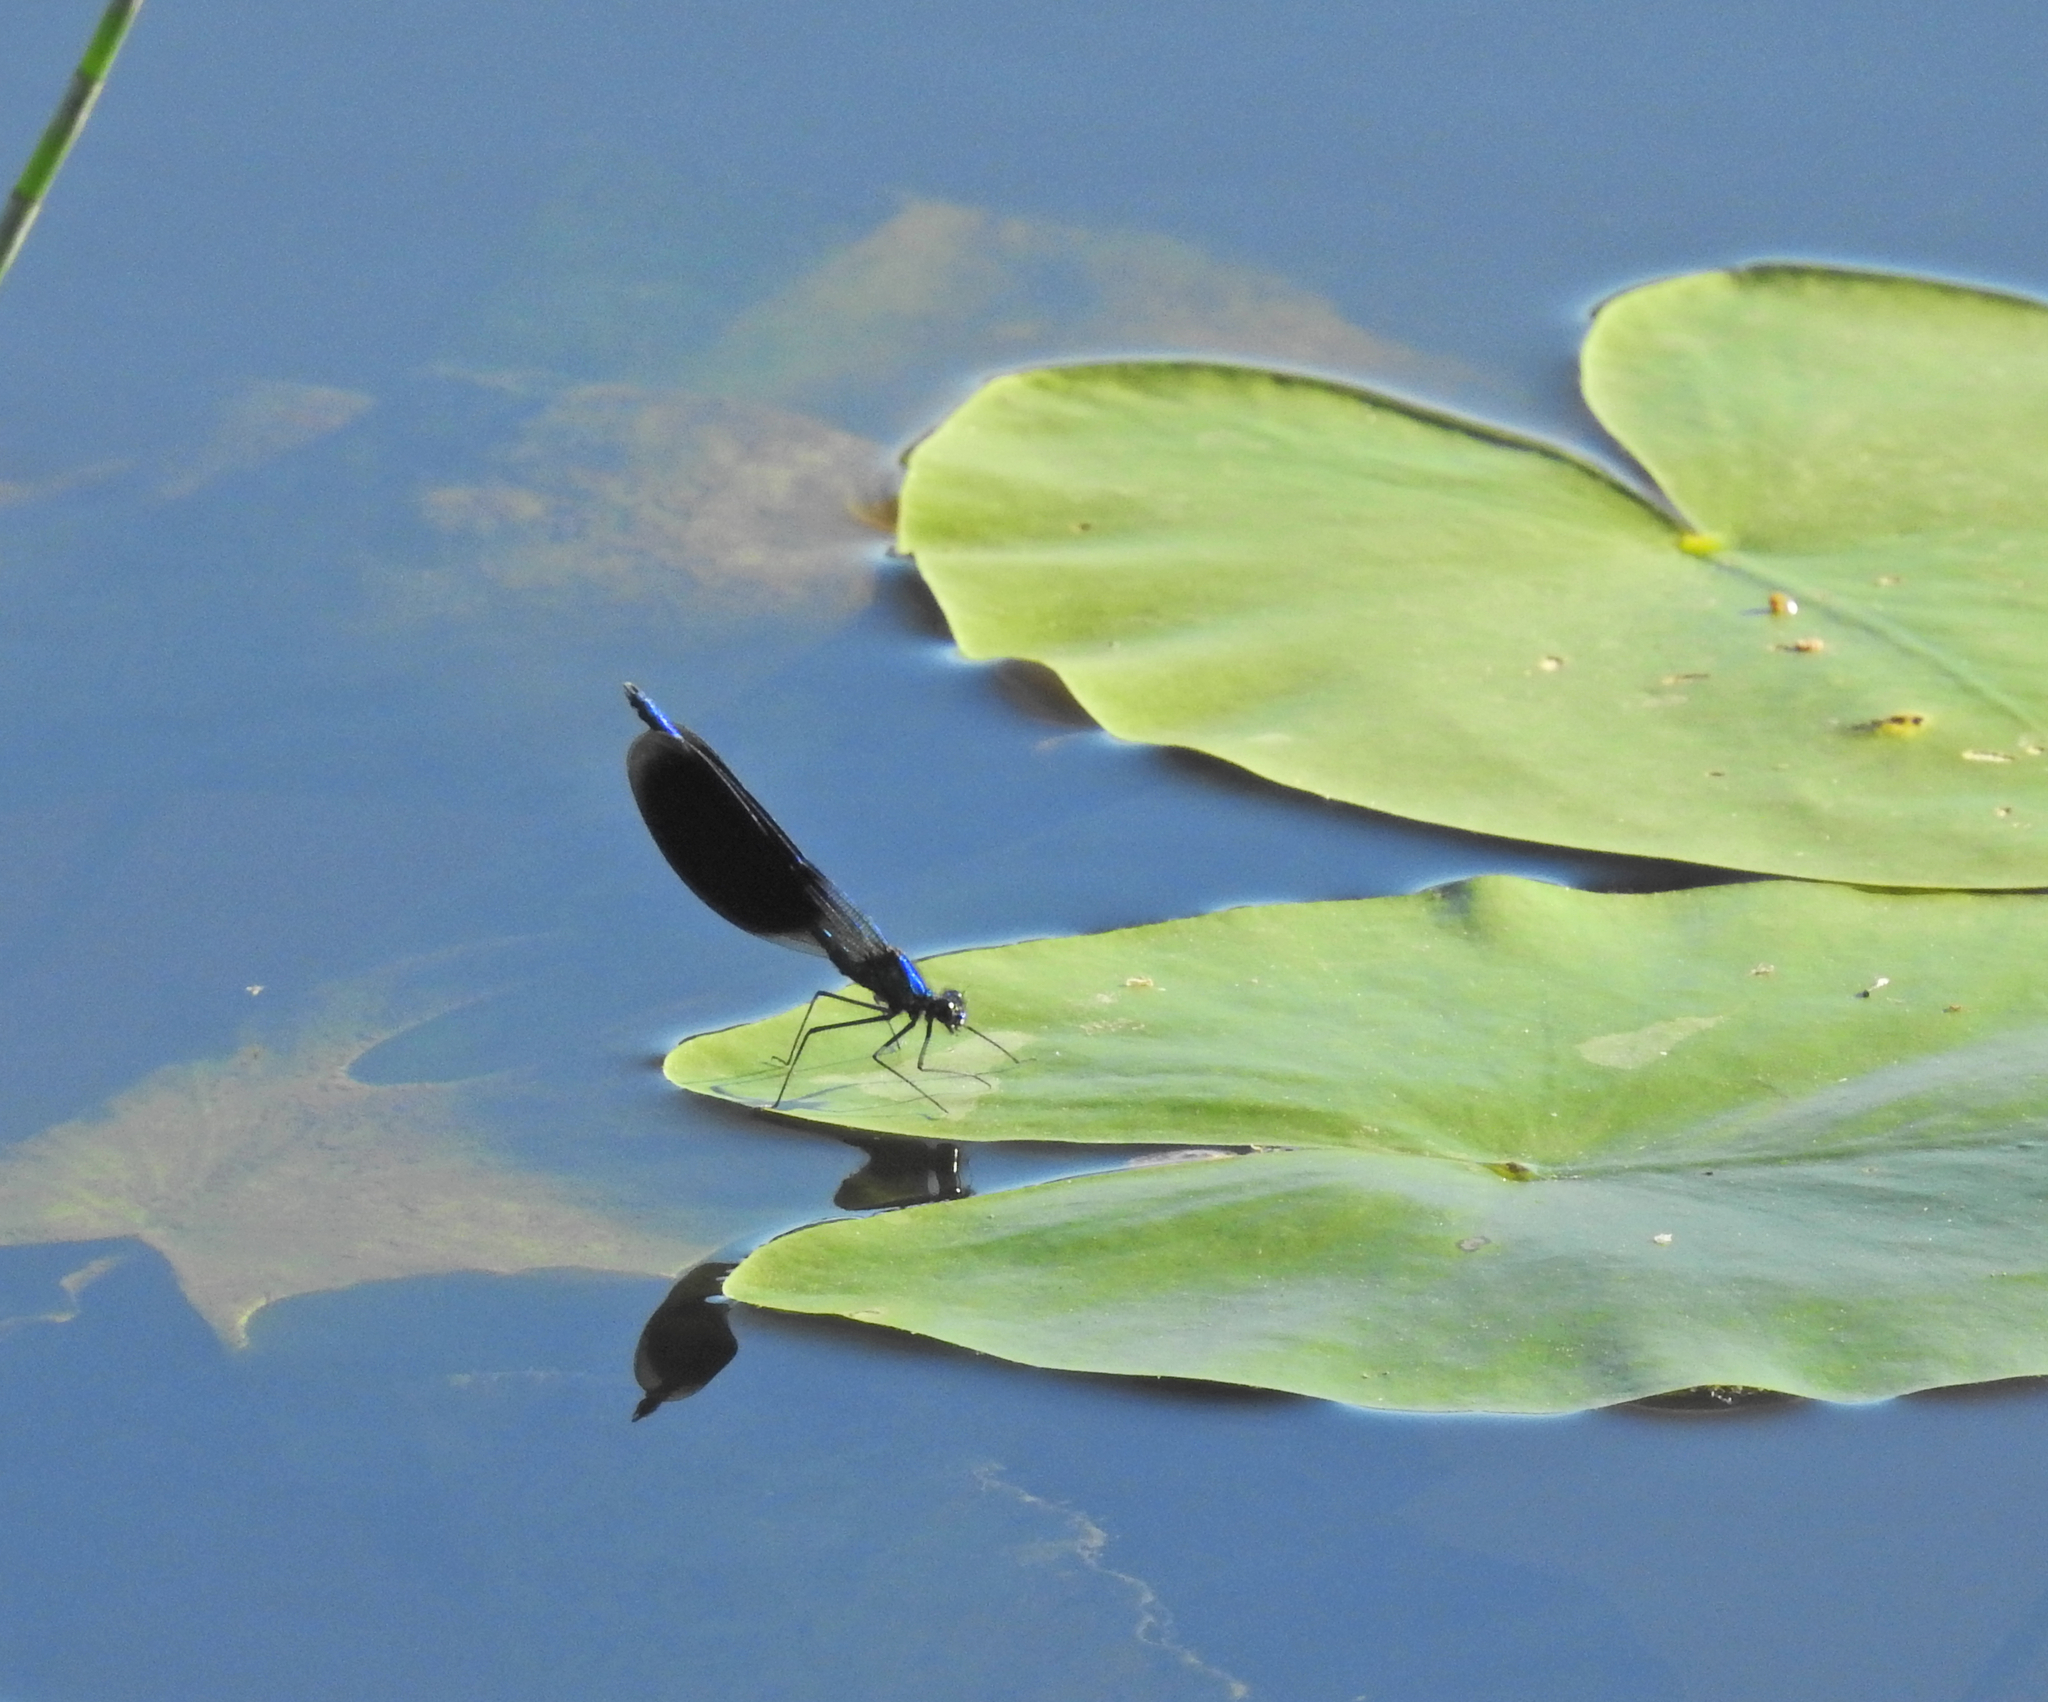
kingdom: Animalia
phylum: Arthropoda
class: Insecta
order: Odonata
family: Calopterygidae
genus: Calopteryx
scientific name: Calopteryx splendens
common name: Banded demoiselle
